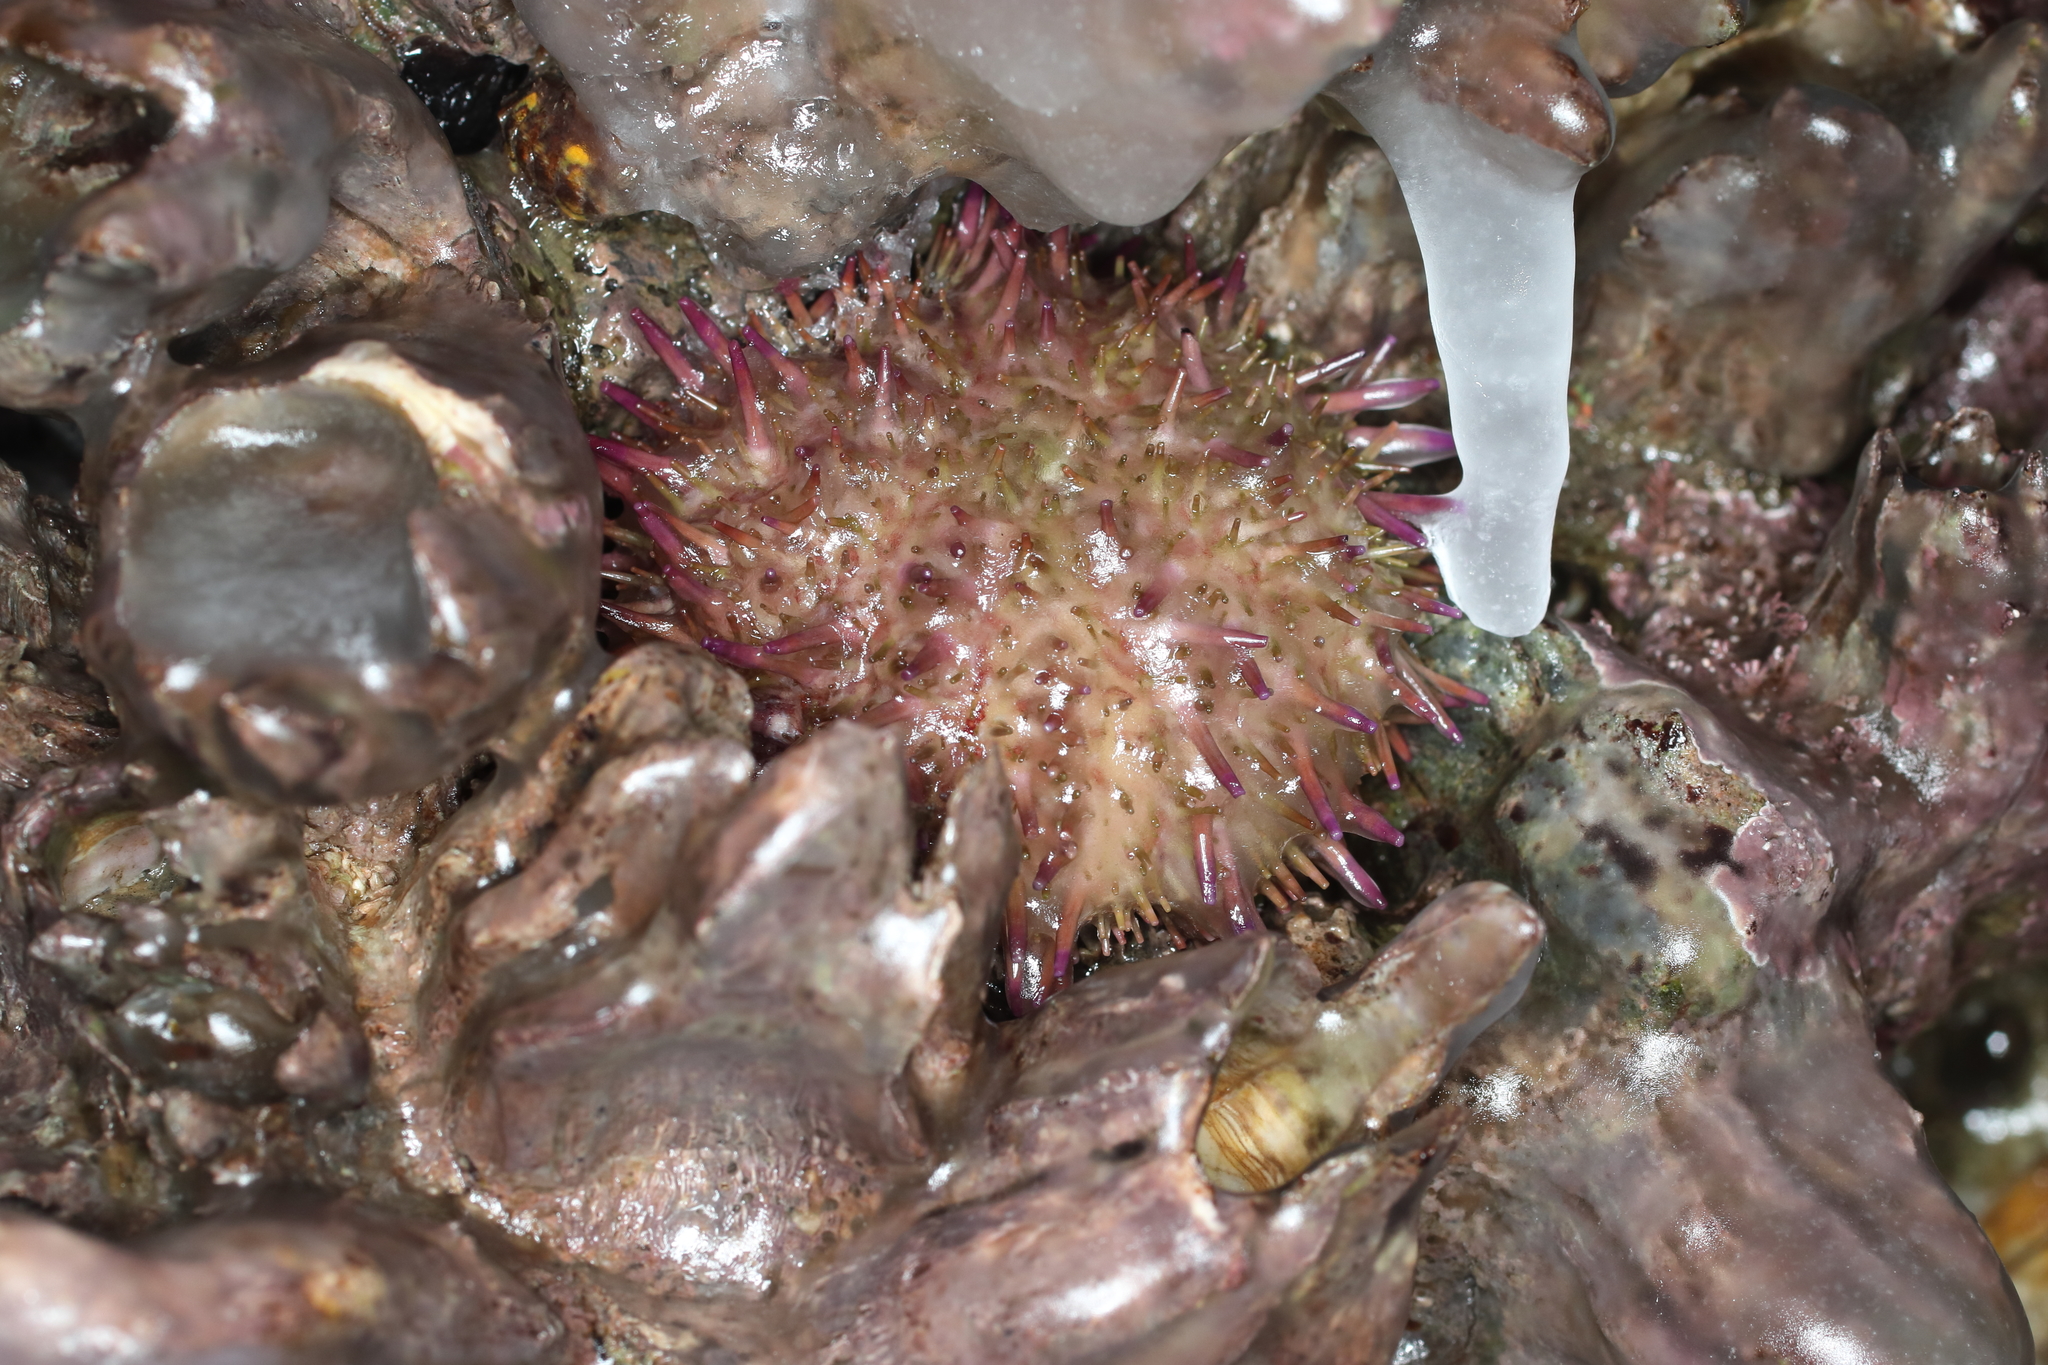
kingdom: Animalia
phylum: Echinodermata
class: Echinoidea
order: Camarodonta
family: Strongylocentrotidae
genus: Strongylocentrotus
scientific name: Strongylocentrotus purpuratus
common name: Purple sea urchin
